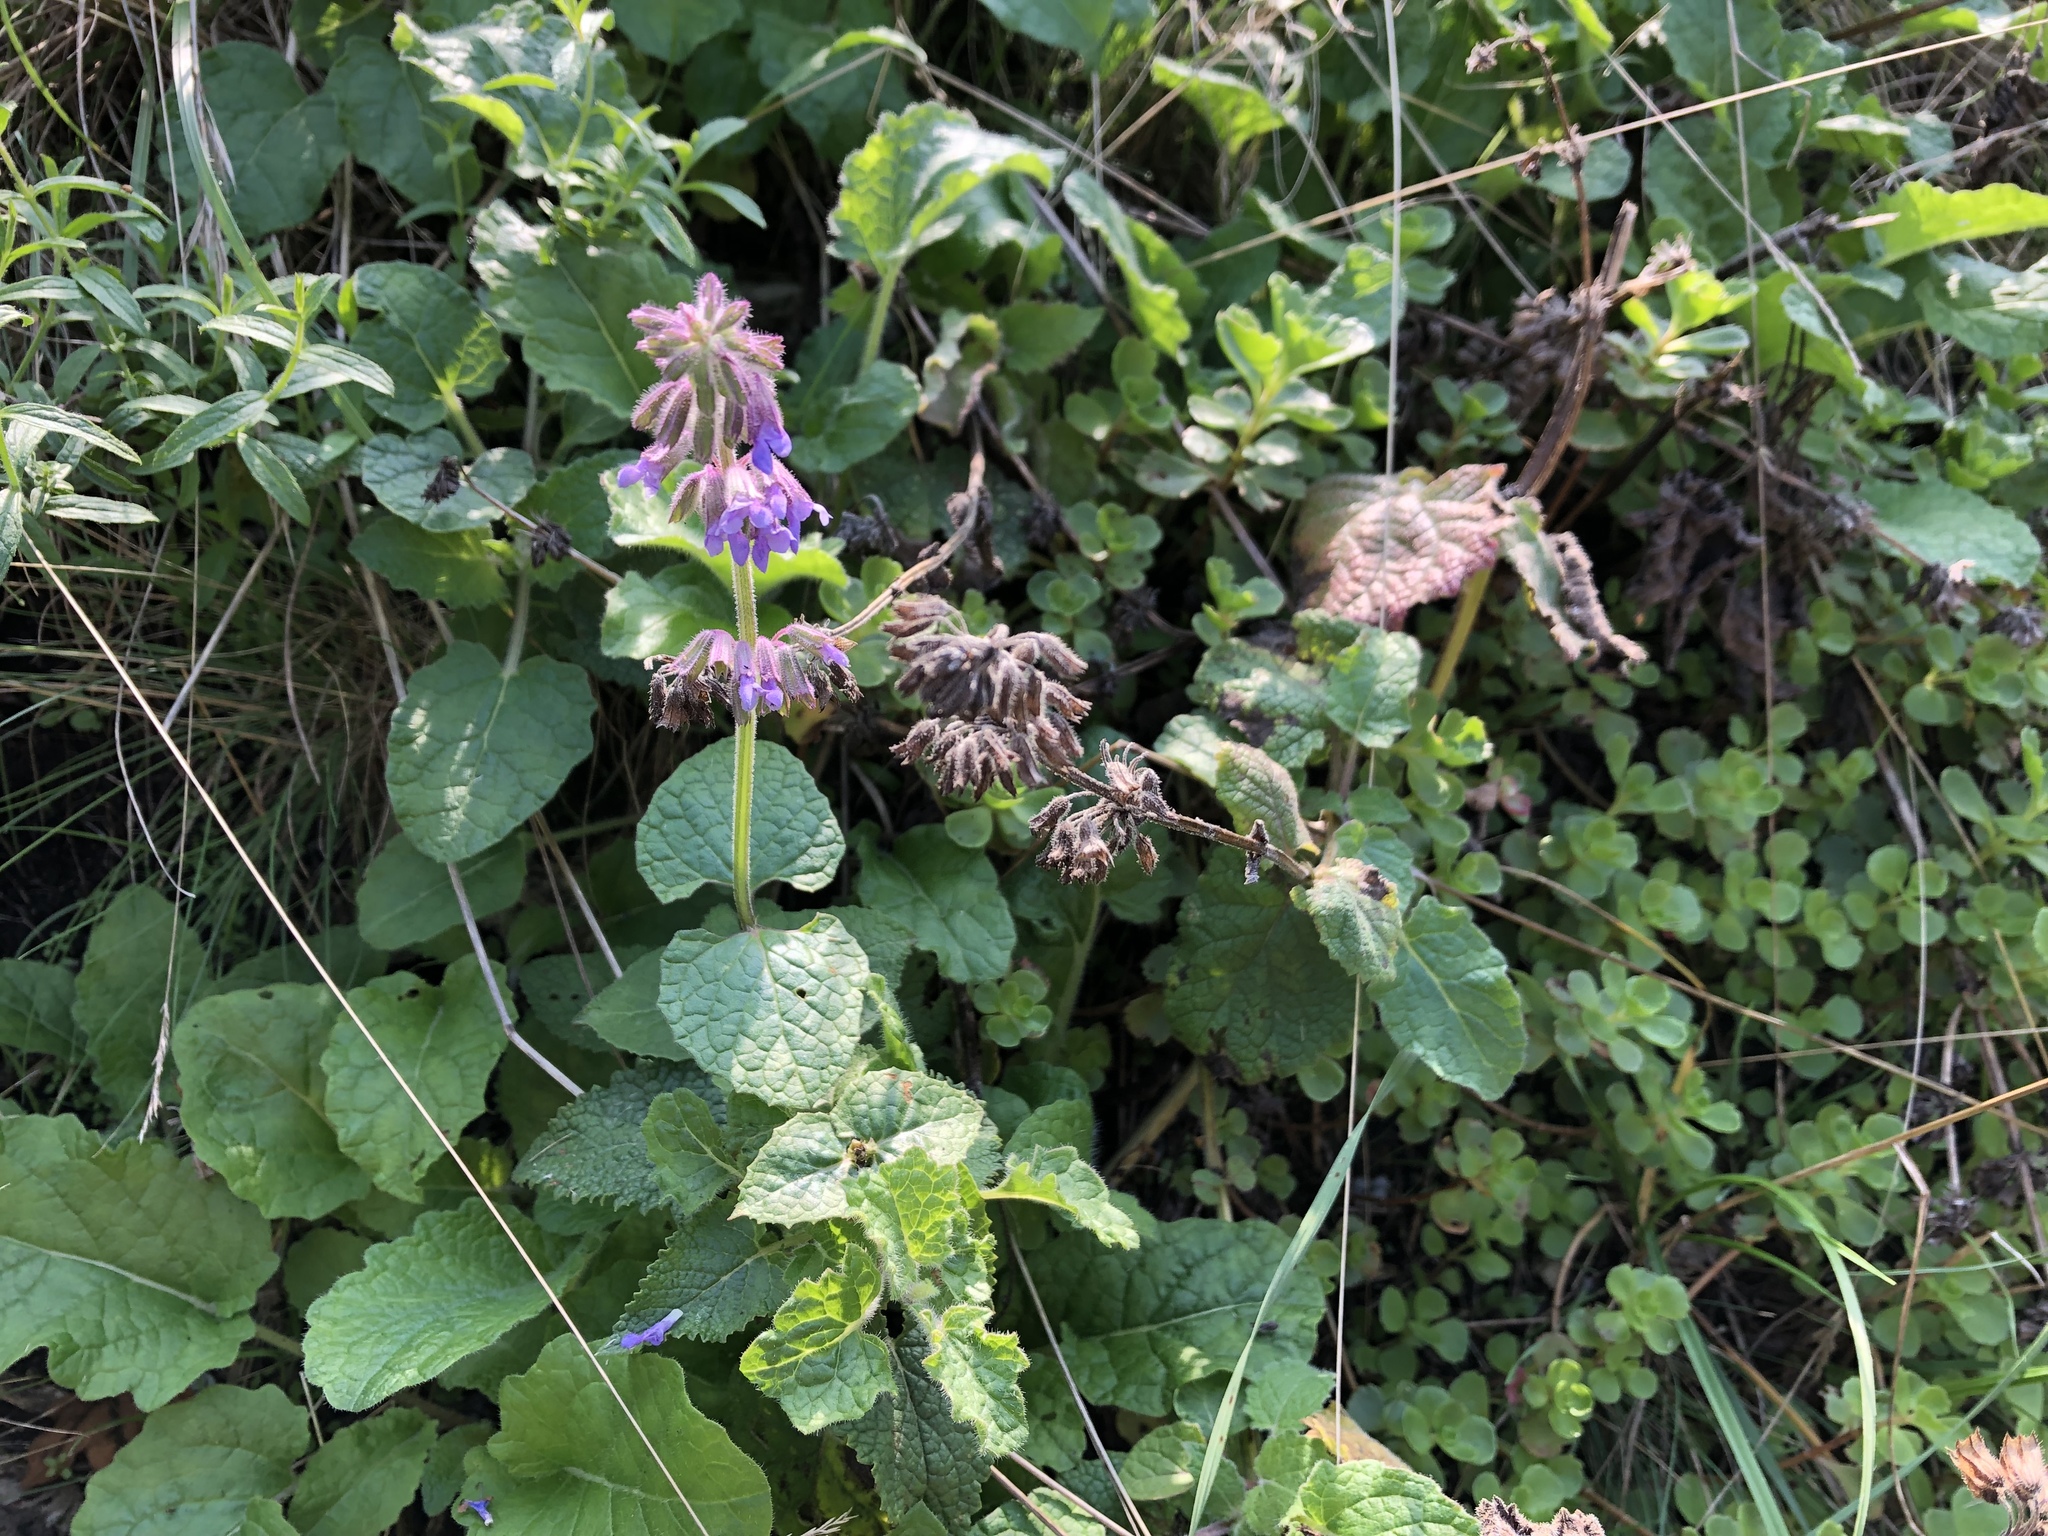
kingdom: Plantae
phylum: Tracheophyta
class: Magnoliopsida
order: Lamiales
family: Lamiaceae
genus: Salvia
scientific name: Salvia verticillata
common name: Whorled clary
